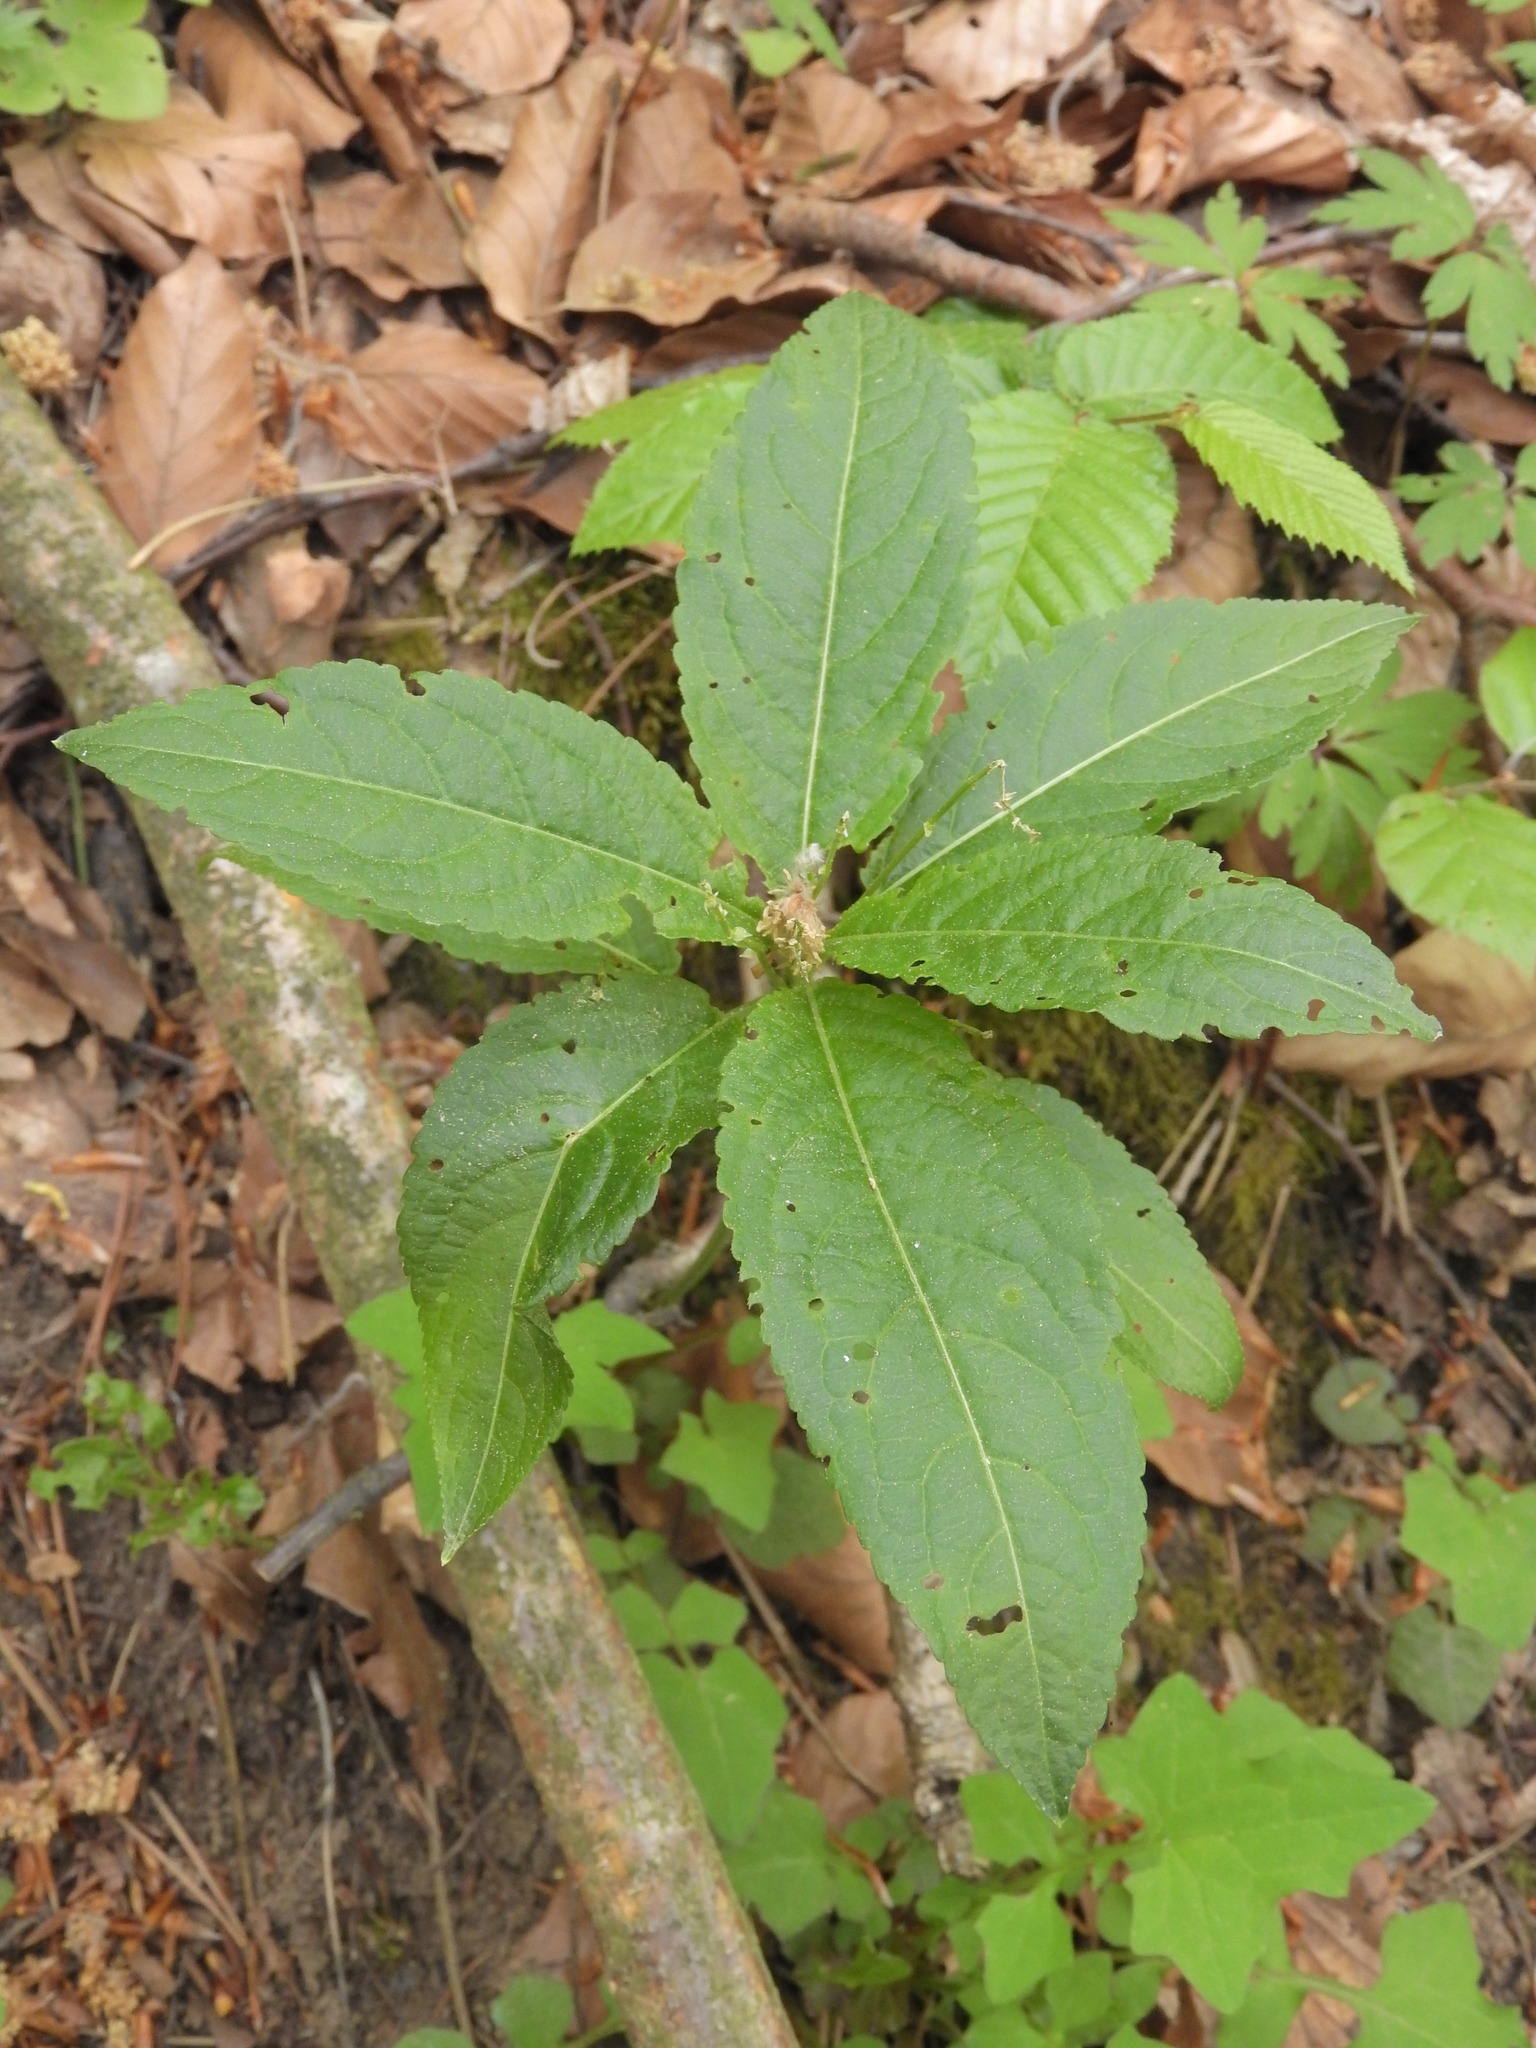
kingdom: Plantae
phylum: Tracheophyta
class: Magnoliopsida
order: Malpighiales
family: Euphorbiaceae
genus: Mercurialis
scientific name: Mercurialis perennis
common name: Dog mercury
